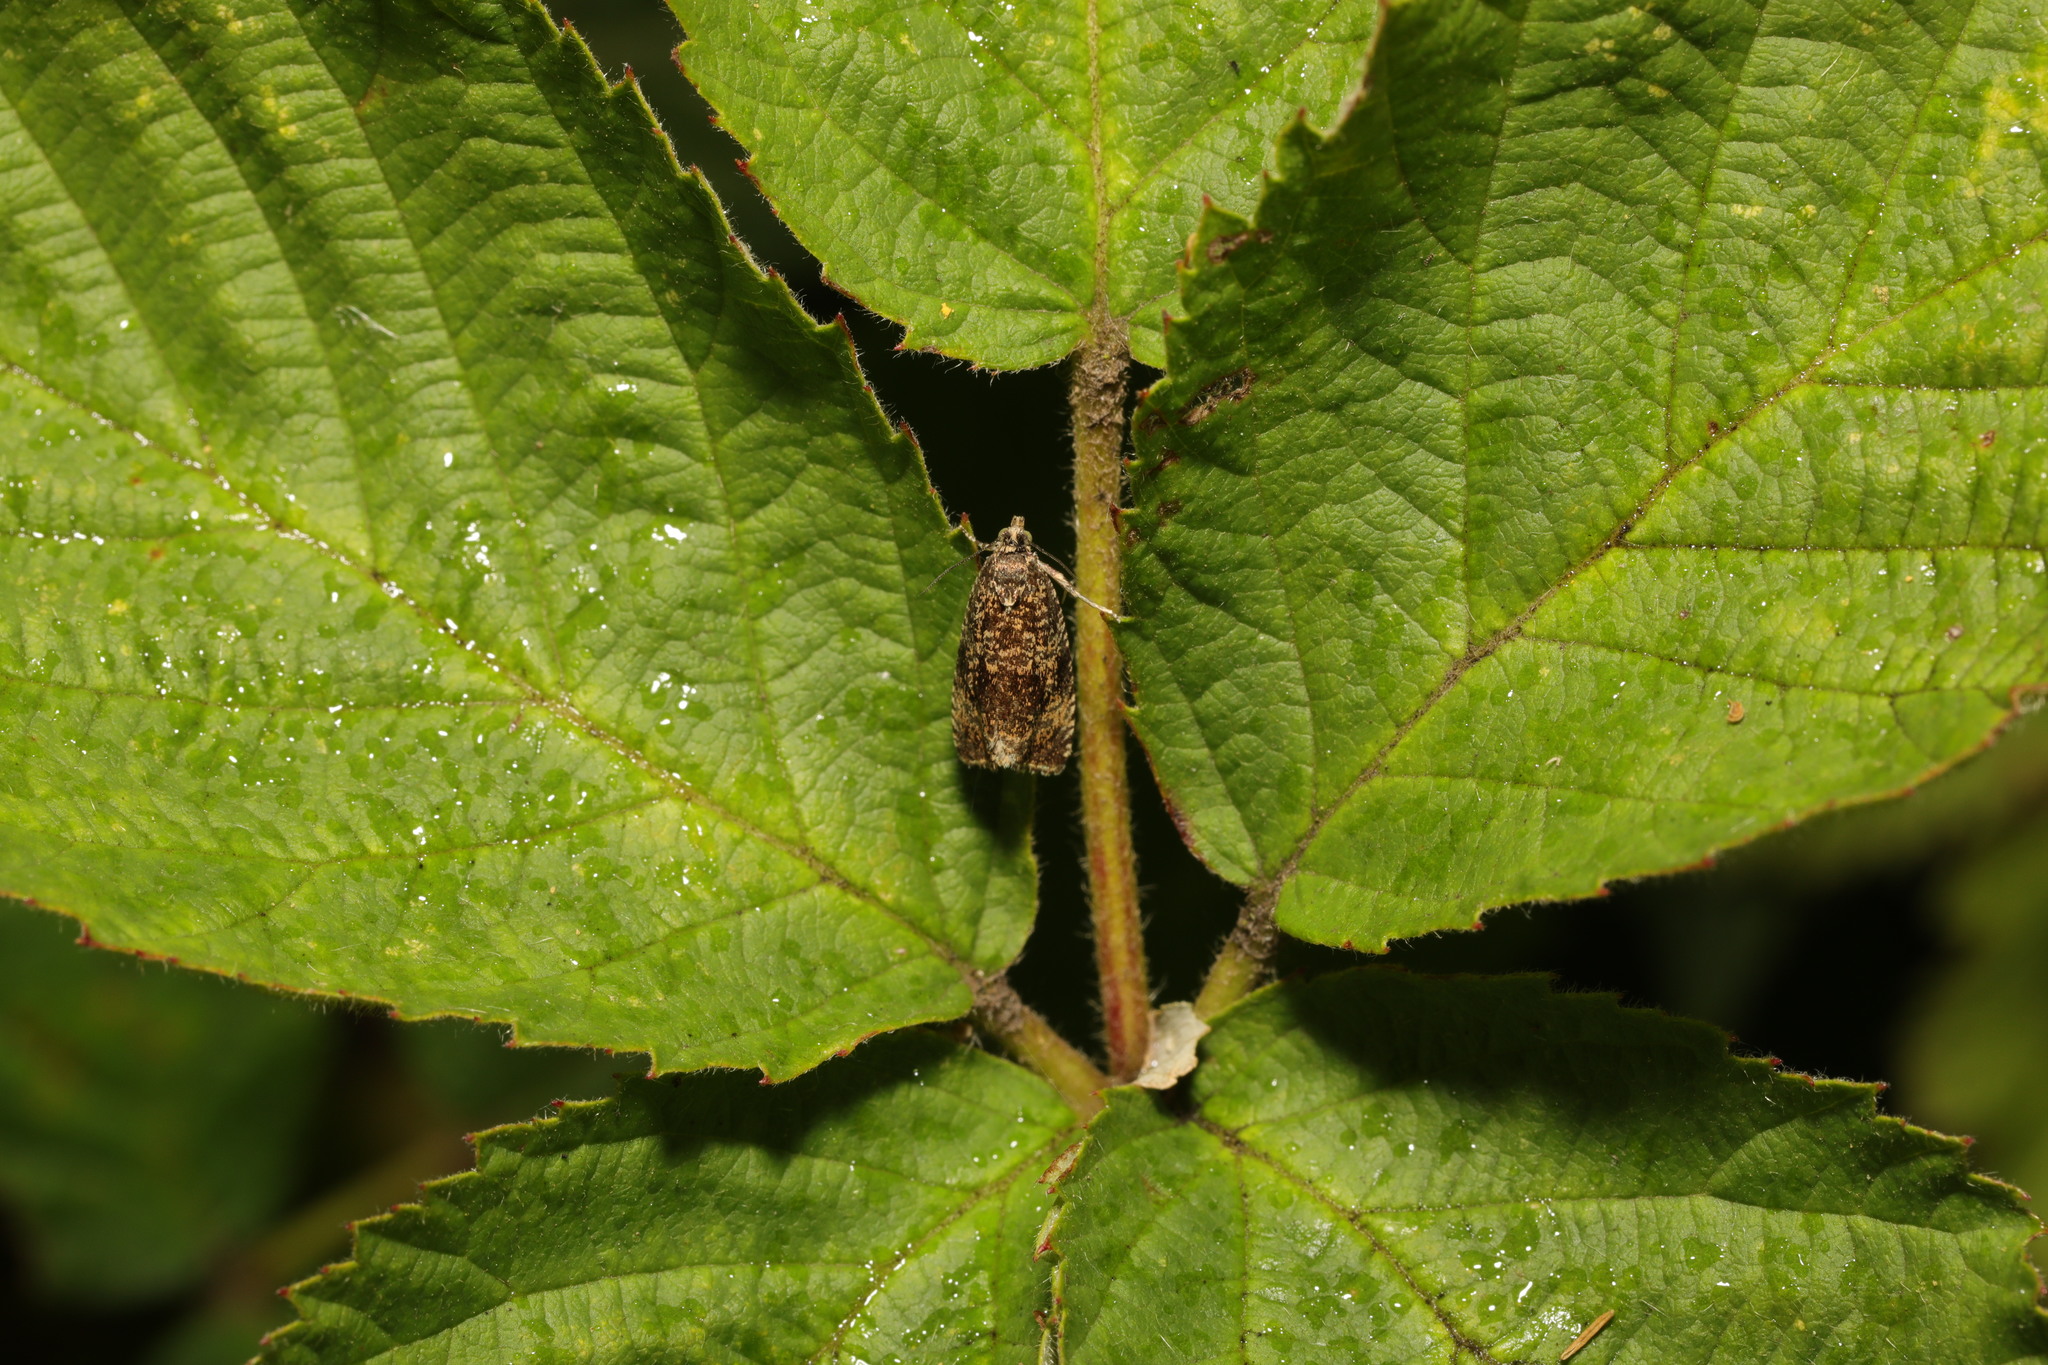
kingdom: Animalia
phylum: Arthropoda
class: Insecta
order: Lepidoptera
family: Tortricidae
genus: Syricoris
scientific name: Syricoris lacunana
